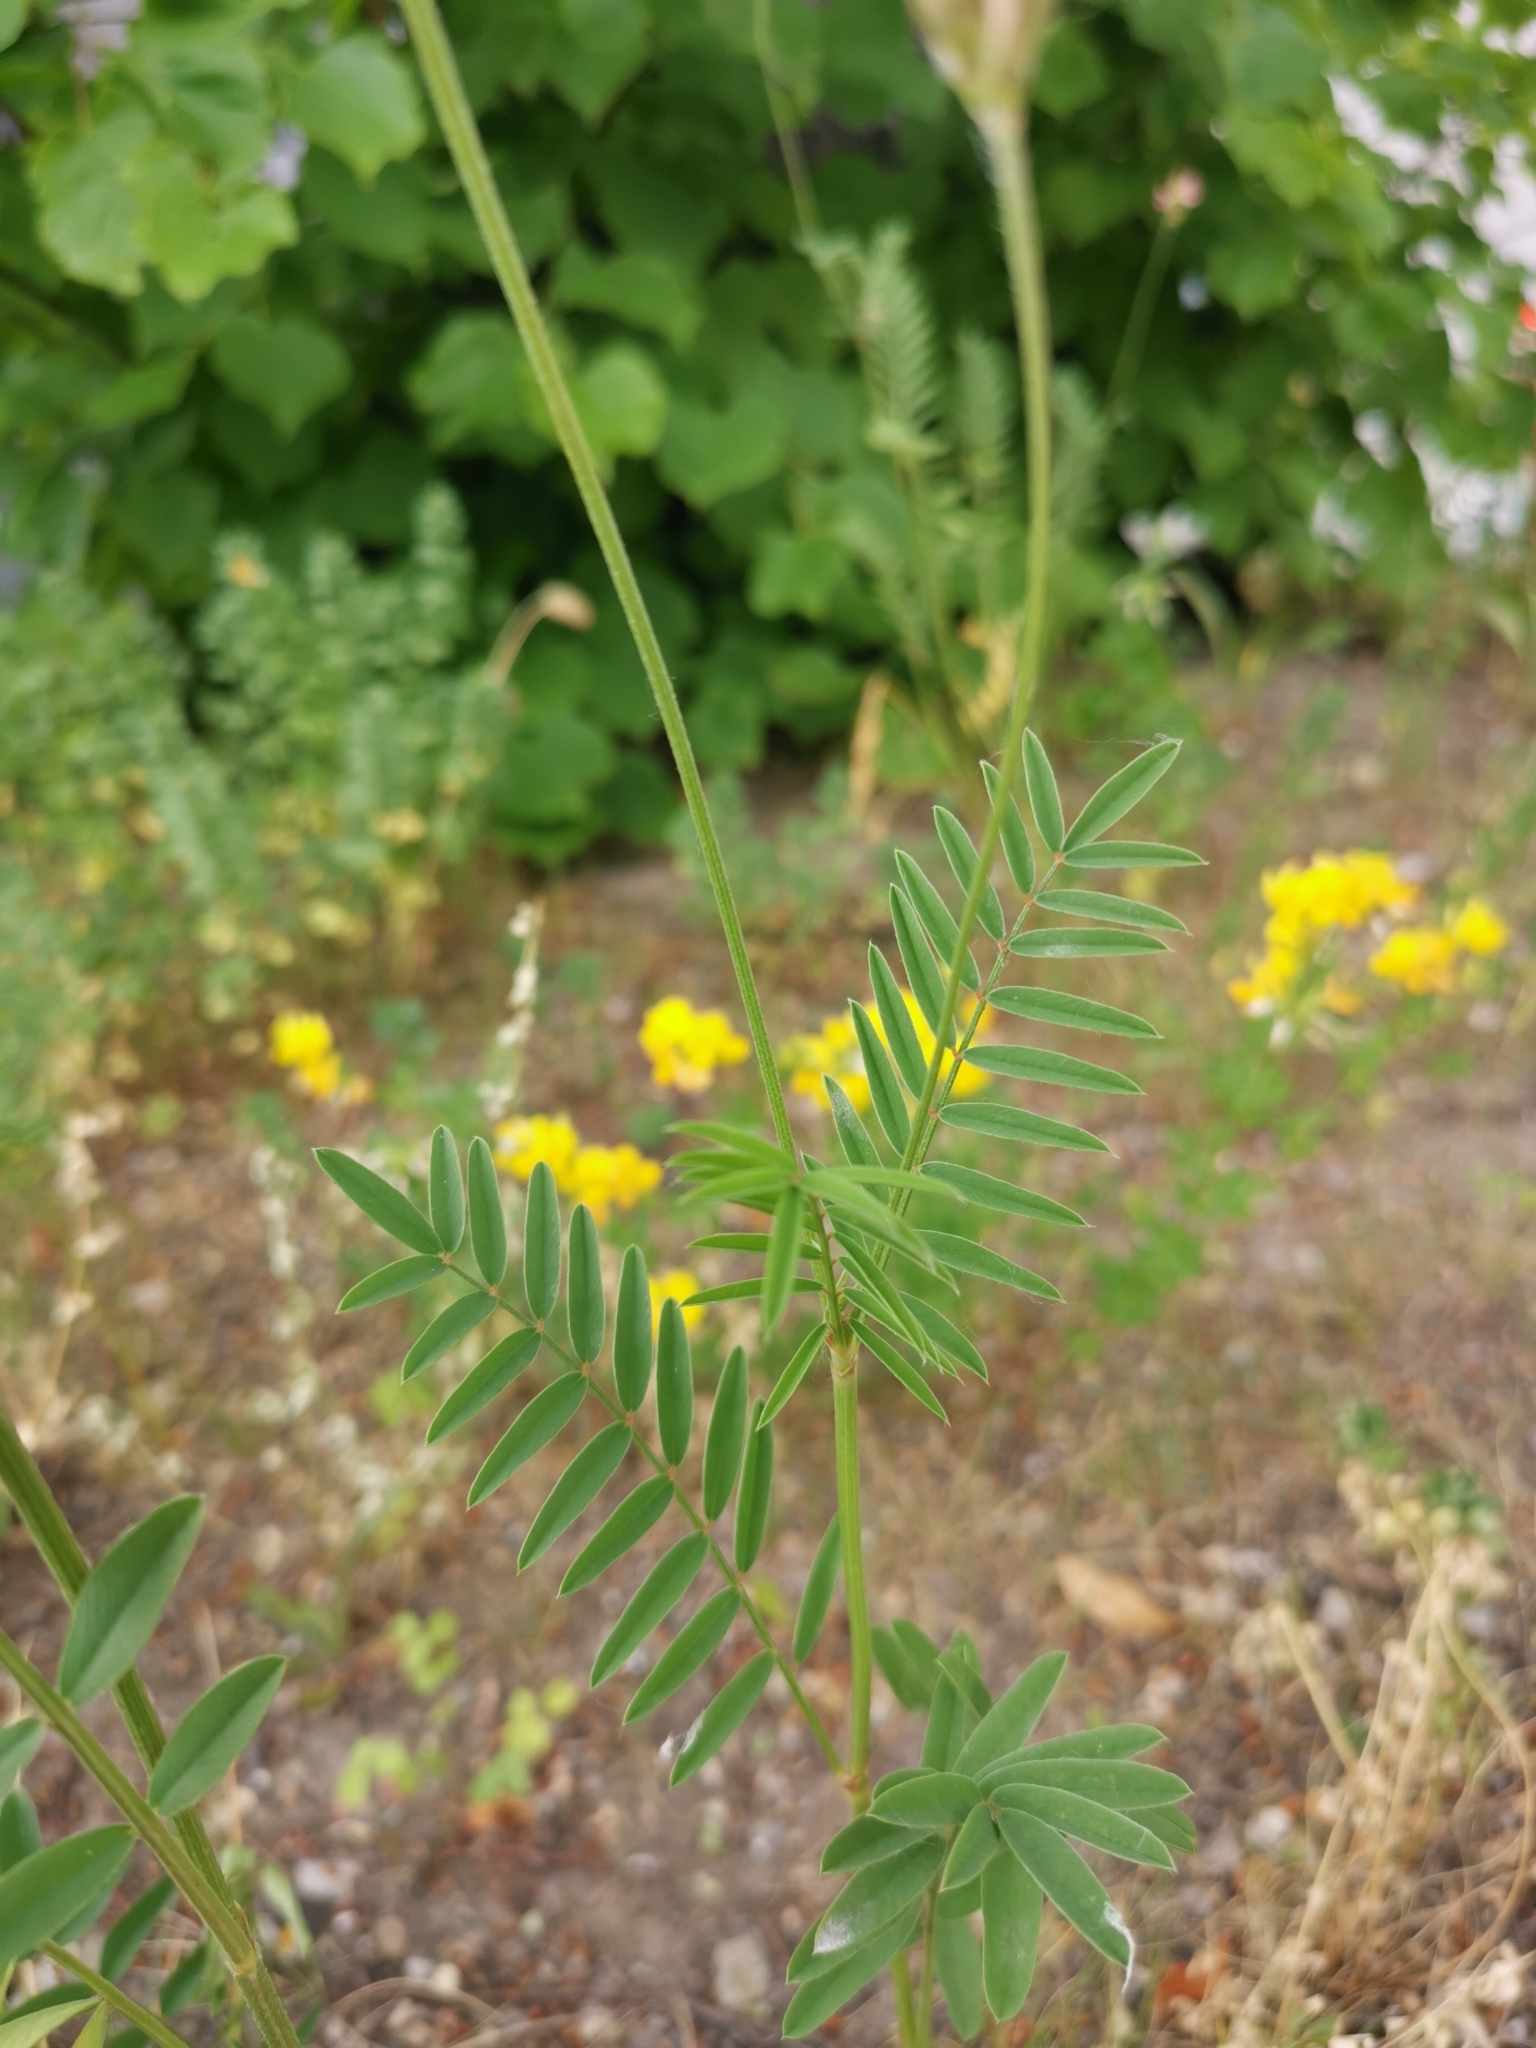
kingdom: Plantae
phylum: Tracheophyta
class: Magnoliopsida
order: Fabales
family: Fabaceae
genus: Onobrychis
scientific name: Onobrychis viciifolia
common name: Sainfoin
